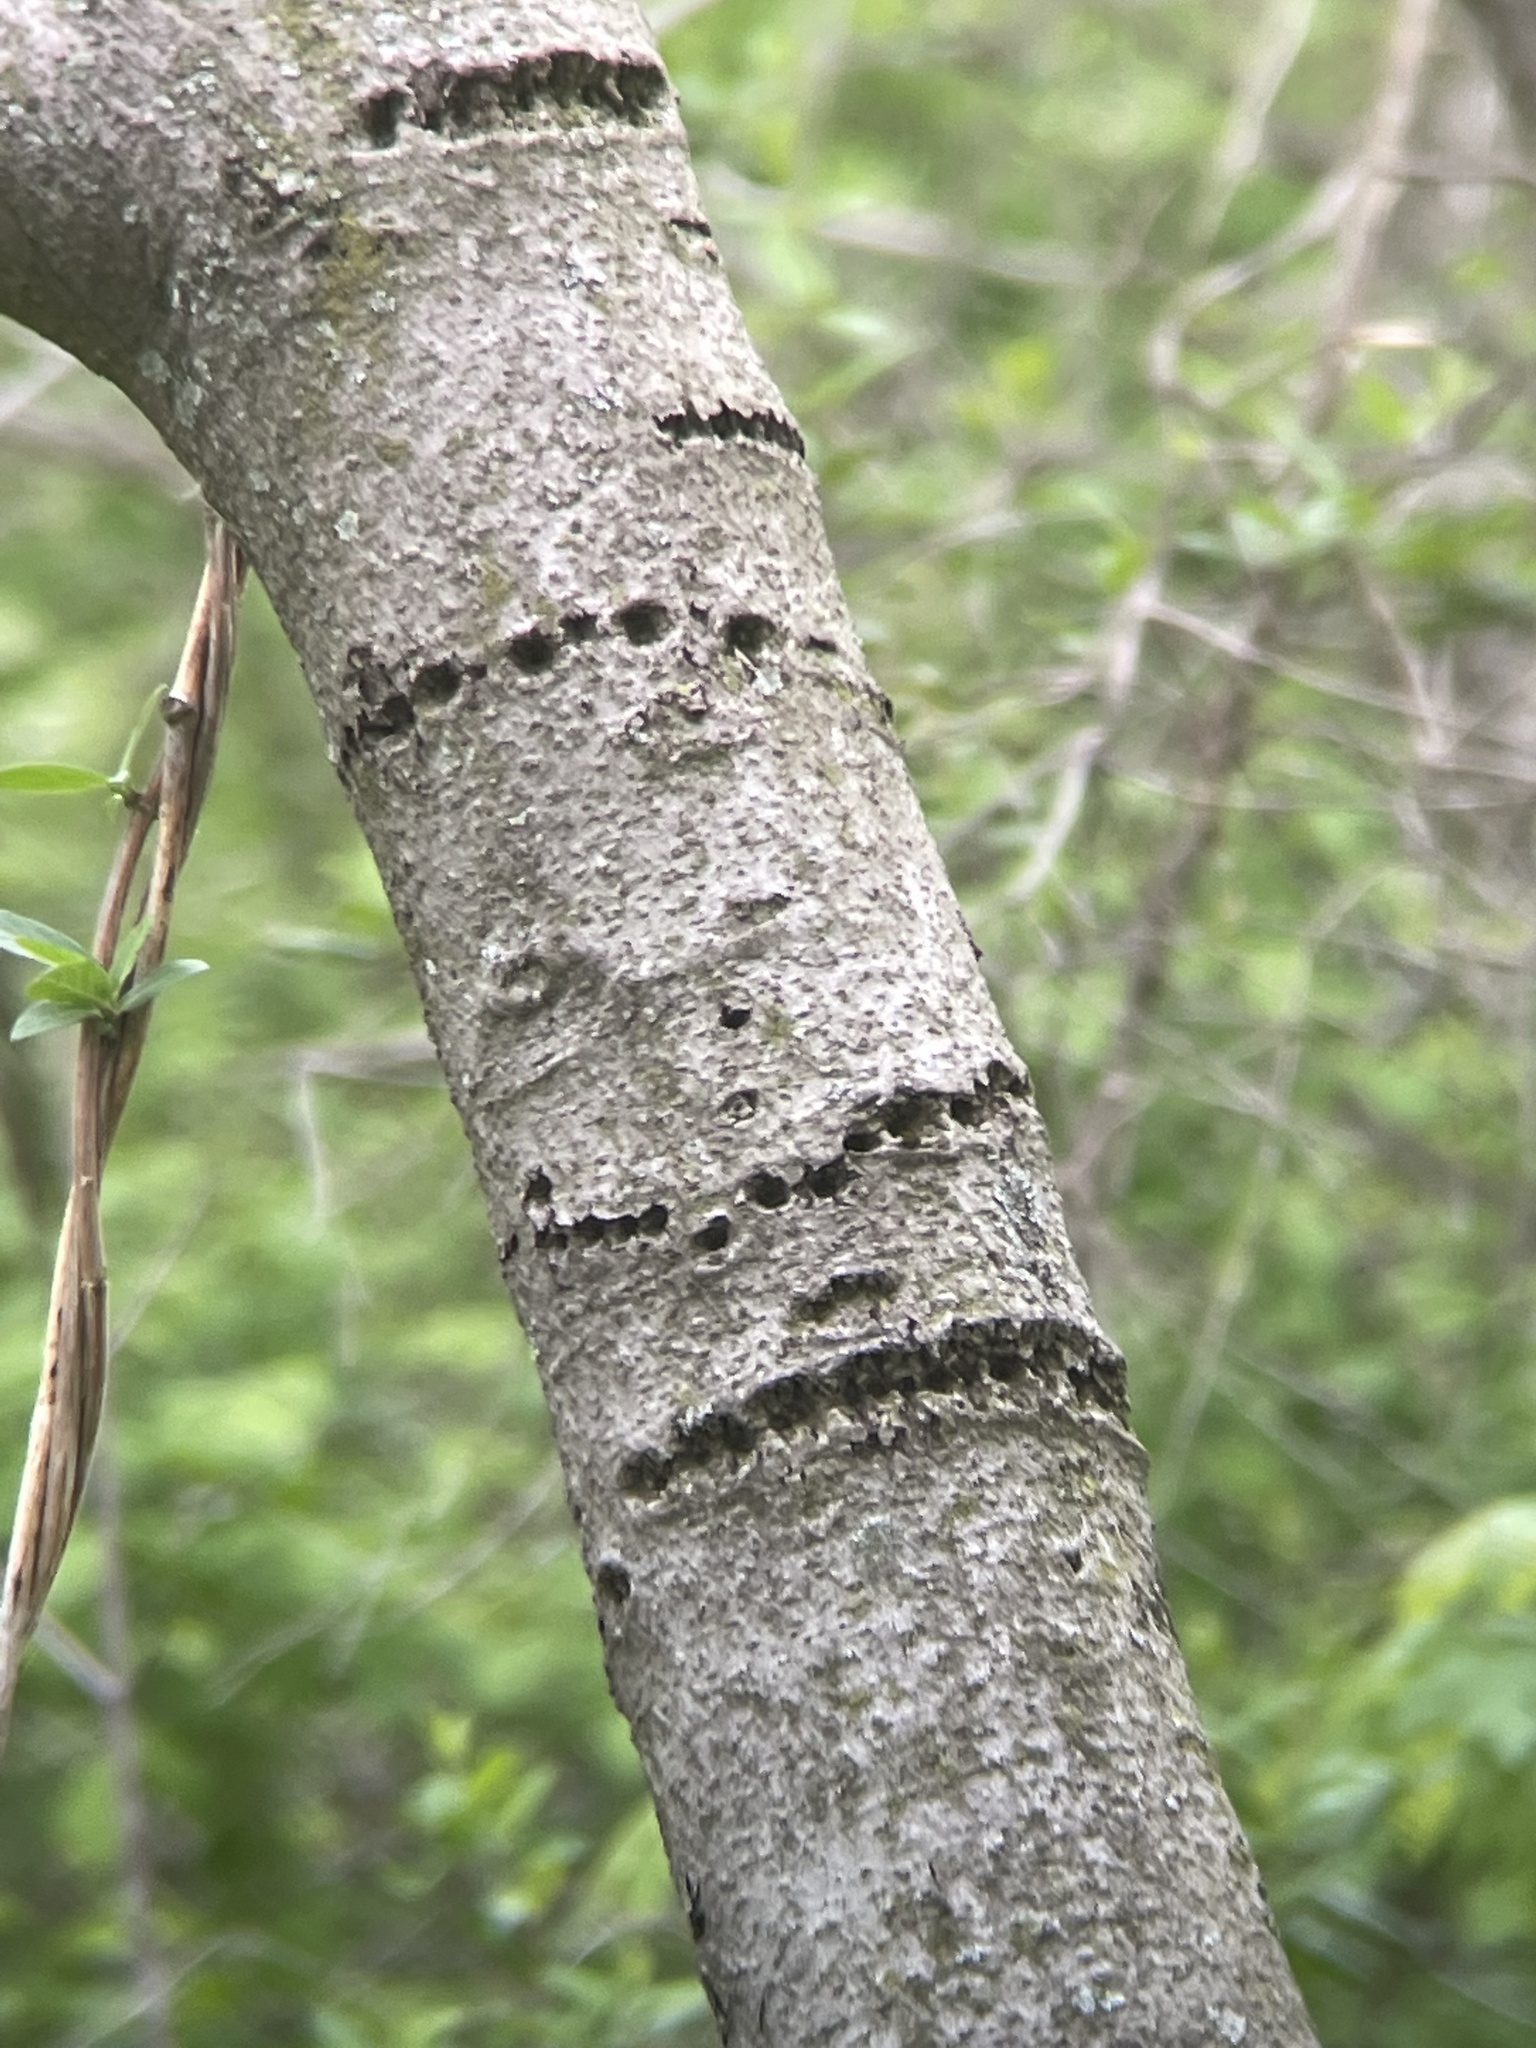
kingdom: Animalia
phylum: Chordata
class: Aves
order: Piciformes
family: Picidae
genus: Sphyrapicus
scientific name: Sphyrapicus varius
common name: Yellow-bellied sapsucker
